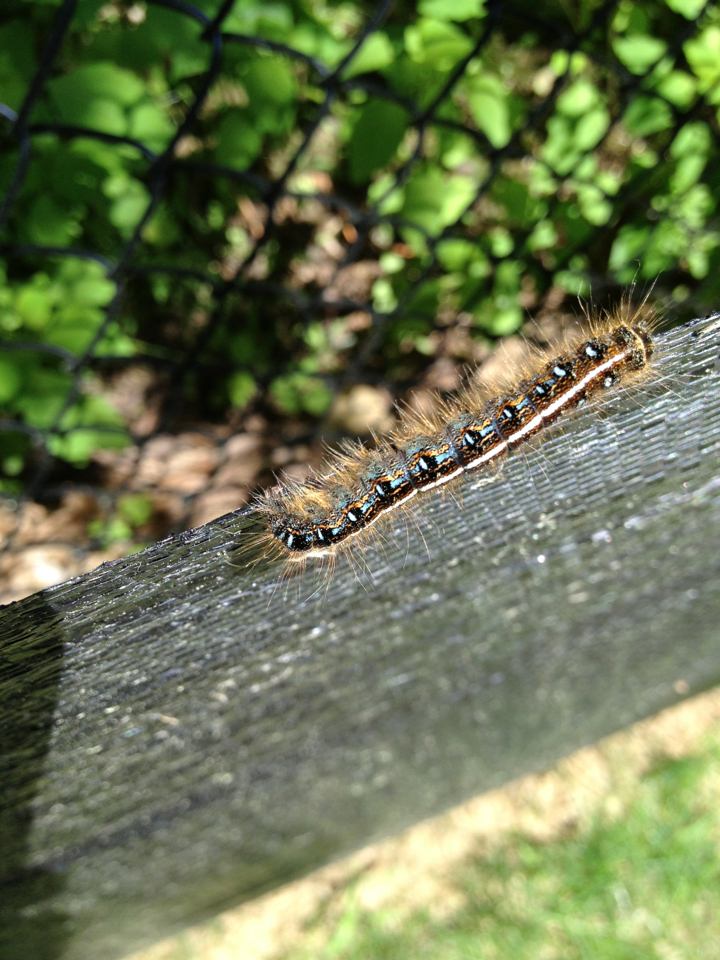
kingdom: Animalia
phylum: Arthropoda
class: Insecta
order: Lepidoptera
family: Lasiocampidae
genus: Malacosoma
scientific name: Malacosoma americana
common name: Eastern tent caterpillar moth
